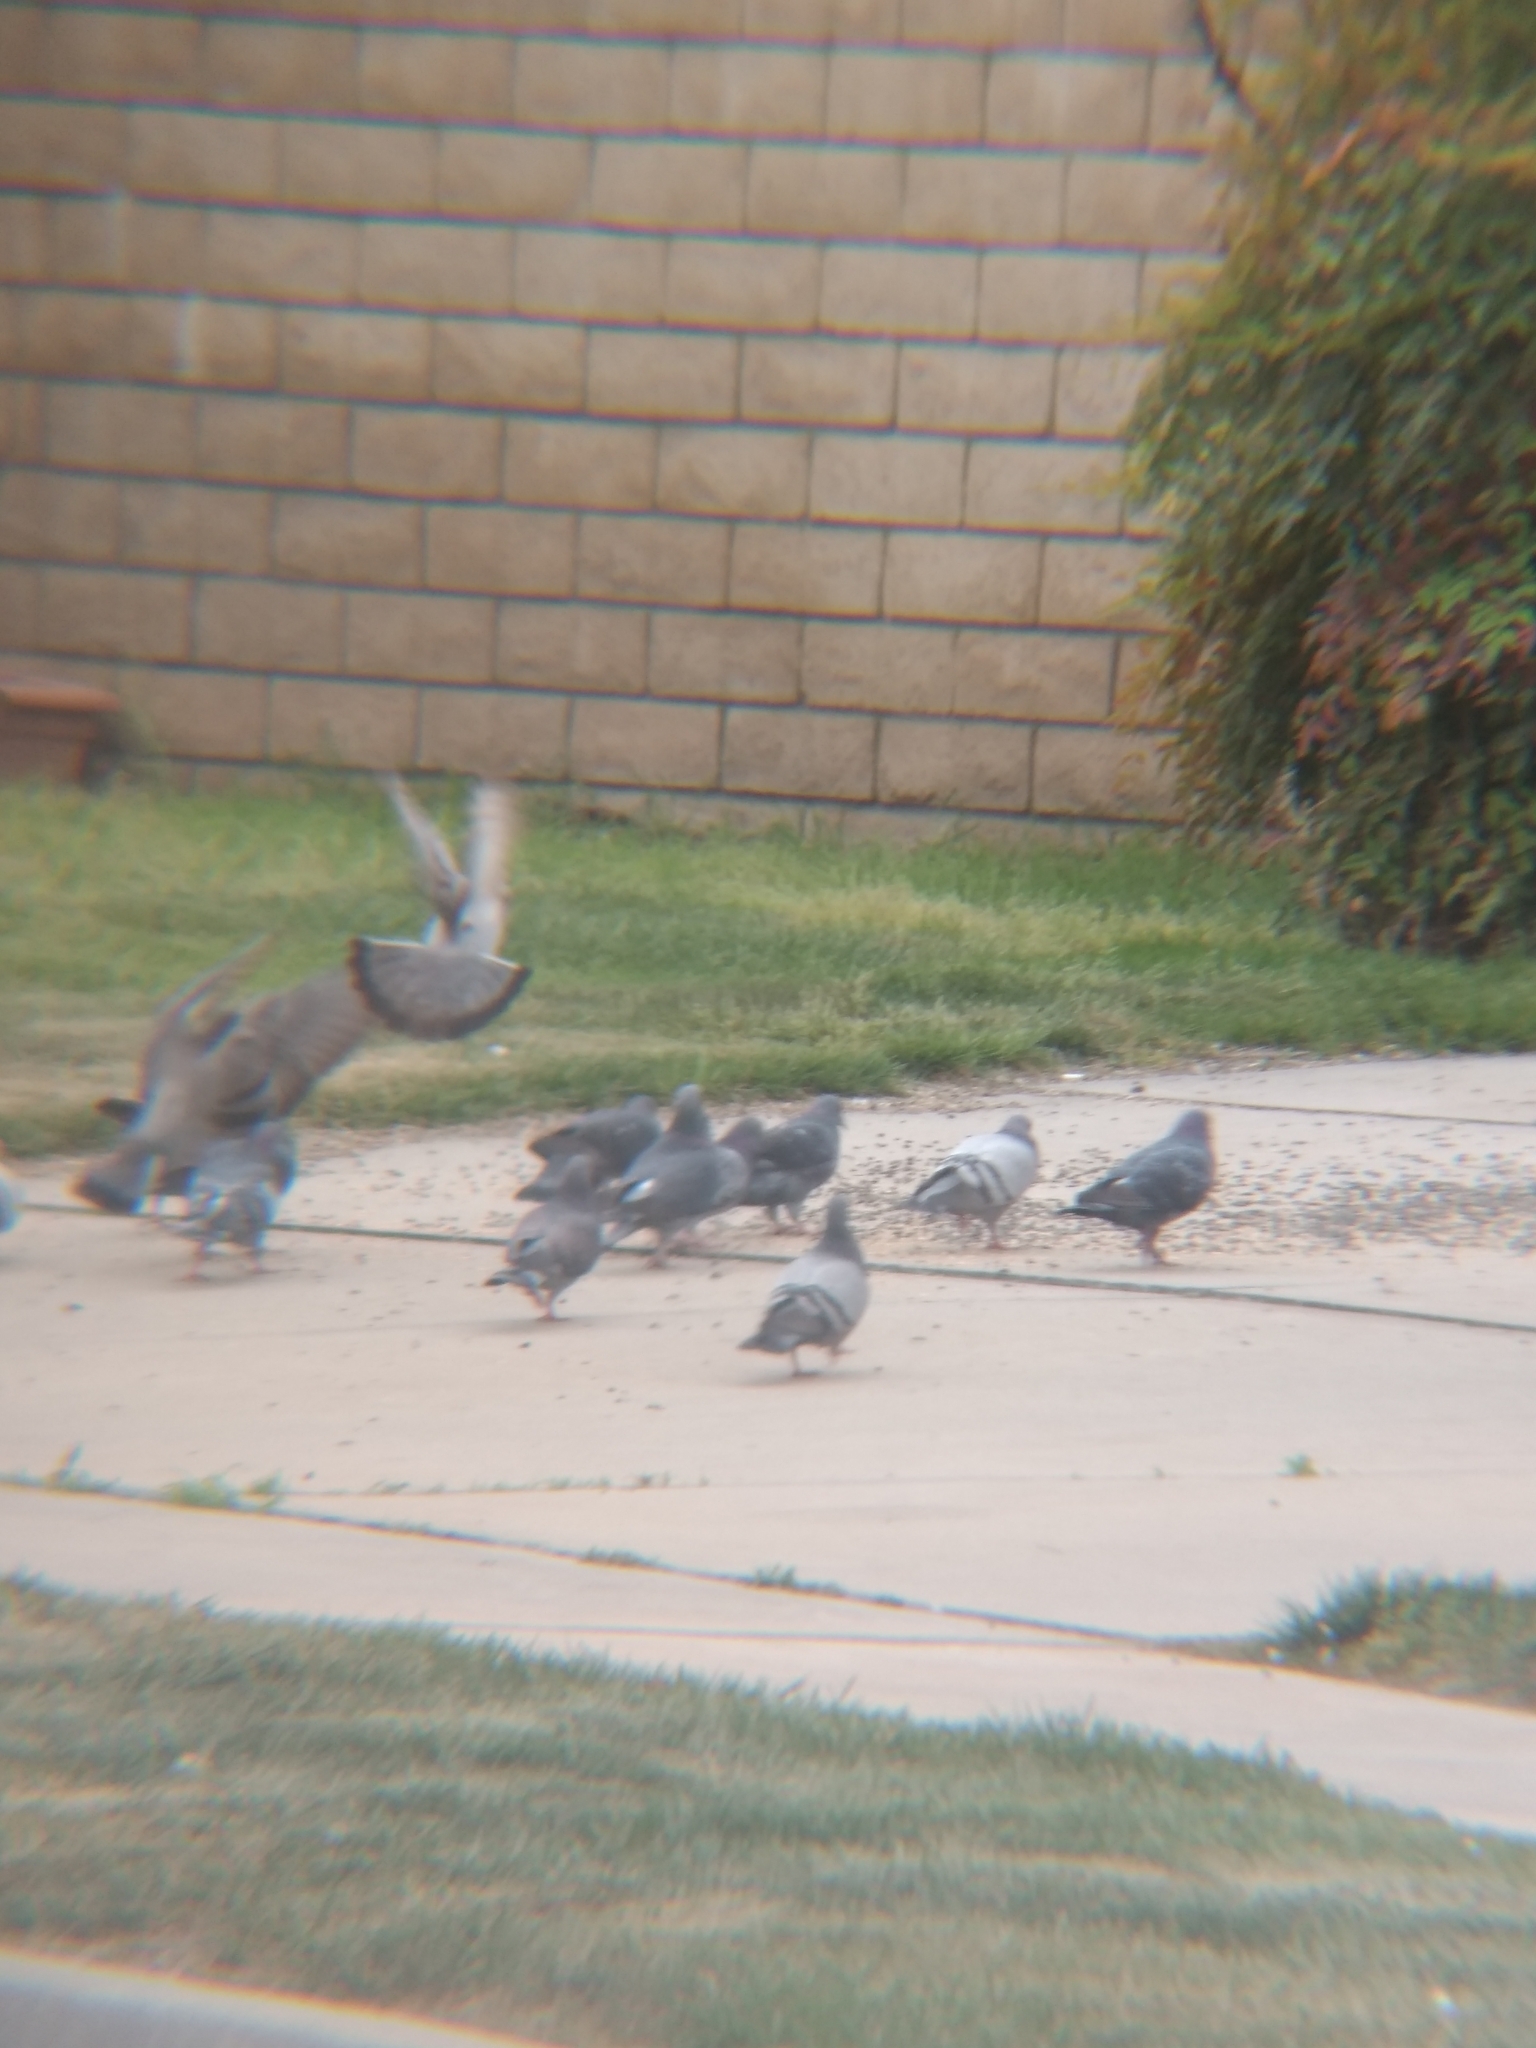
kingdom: Animalia
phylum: Chordata
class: Aves
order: Columbiformes
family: Columbidae
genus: Columba
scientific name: Columba livia
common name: Rock pigeon
